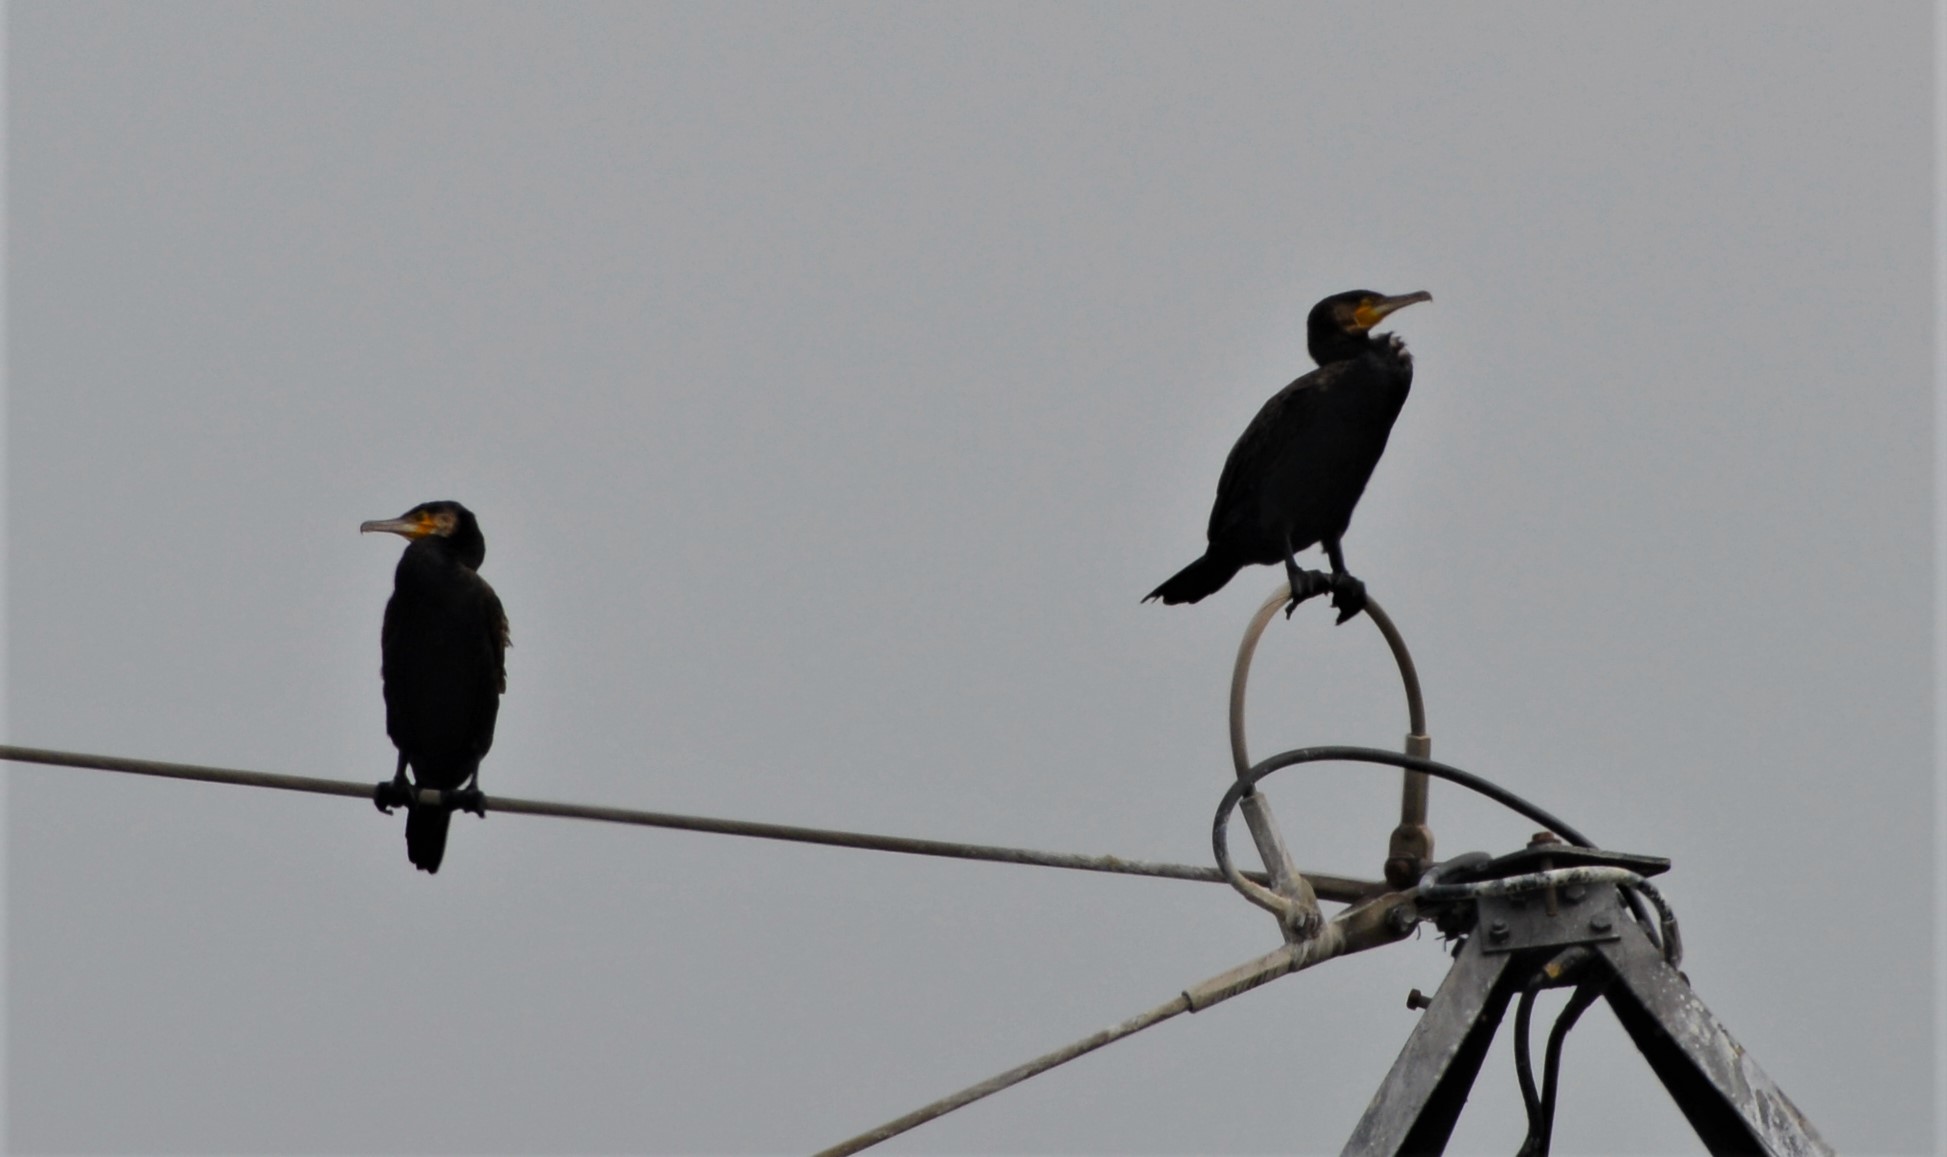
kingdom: Animalia
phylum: Chordata
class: Aves
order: Suliformes
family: Phalacrocoracidae
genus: Phalacrocorax
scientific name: Phalacrocorax carbo
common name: Great cormorant
